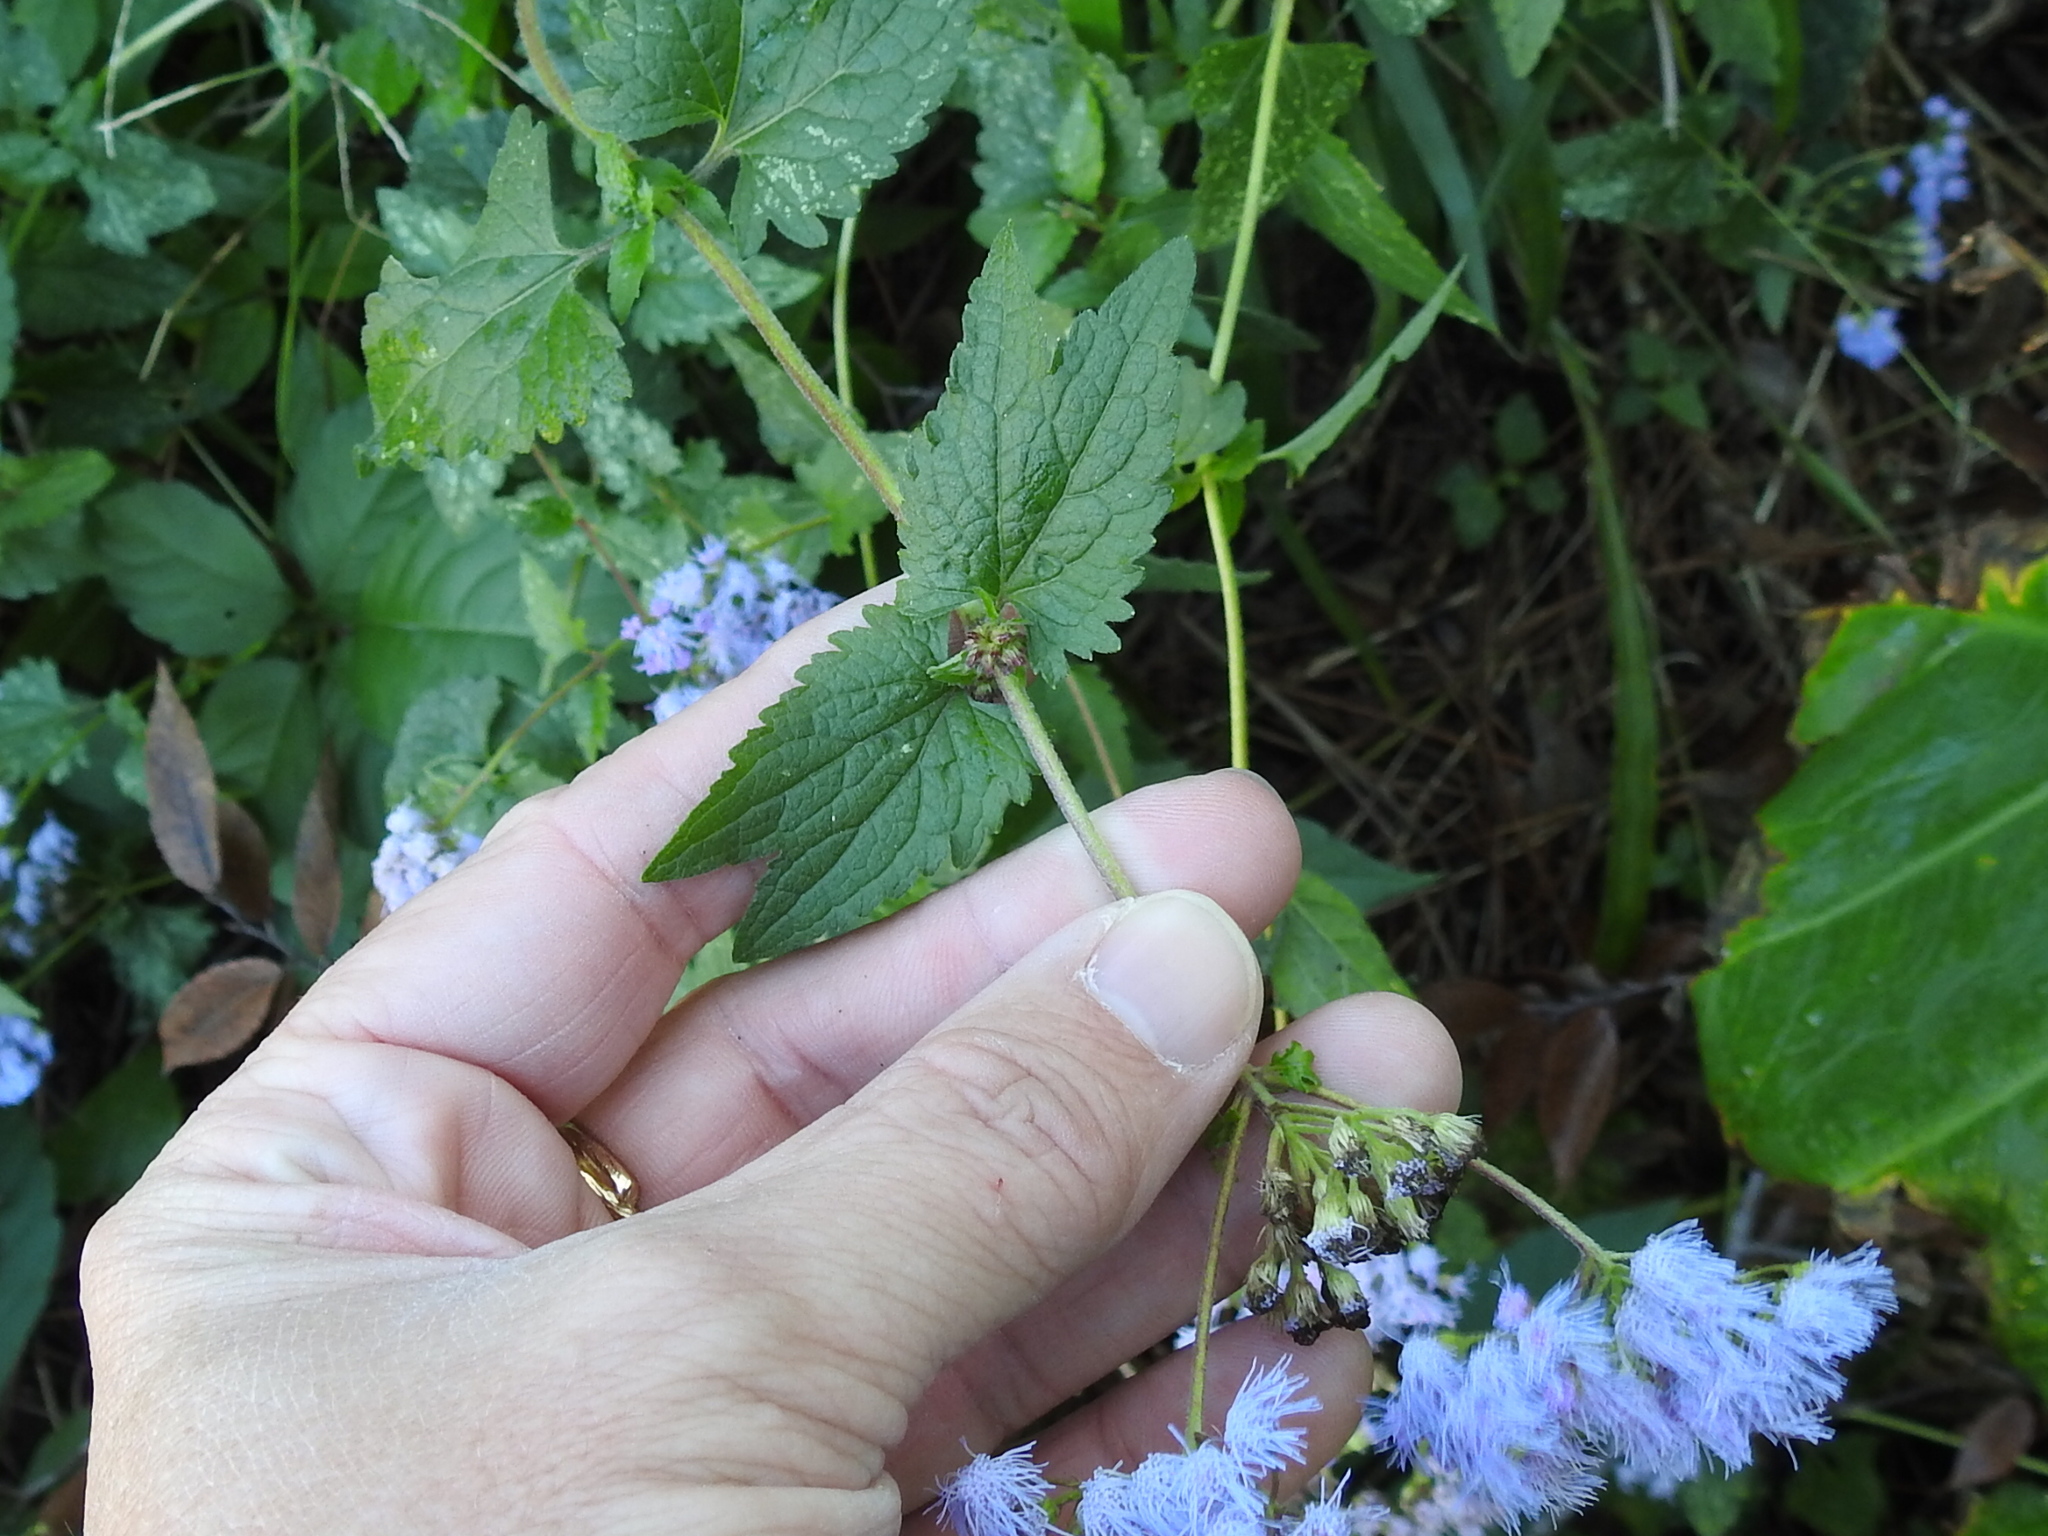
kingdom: Plantae
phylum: Tracheophyta
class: Magnoliopsida
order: Asterales
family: Asteraceae
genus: Conoclinium
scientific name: Conoclinium coelestinum
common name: Blue mistflower
